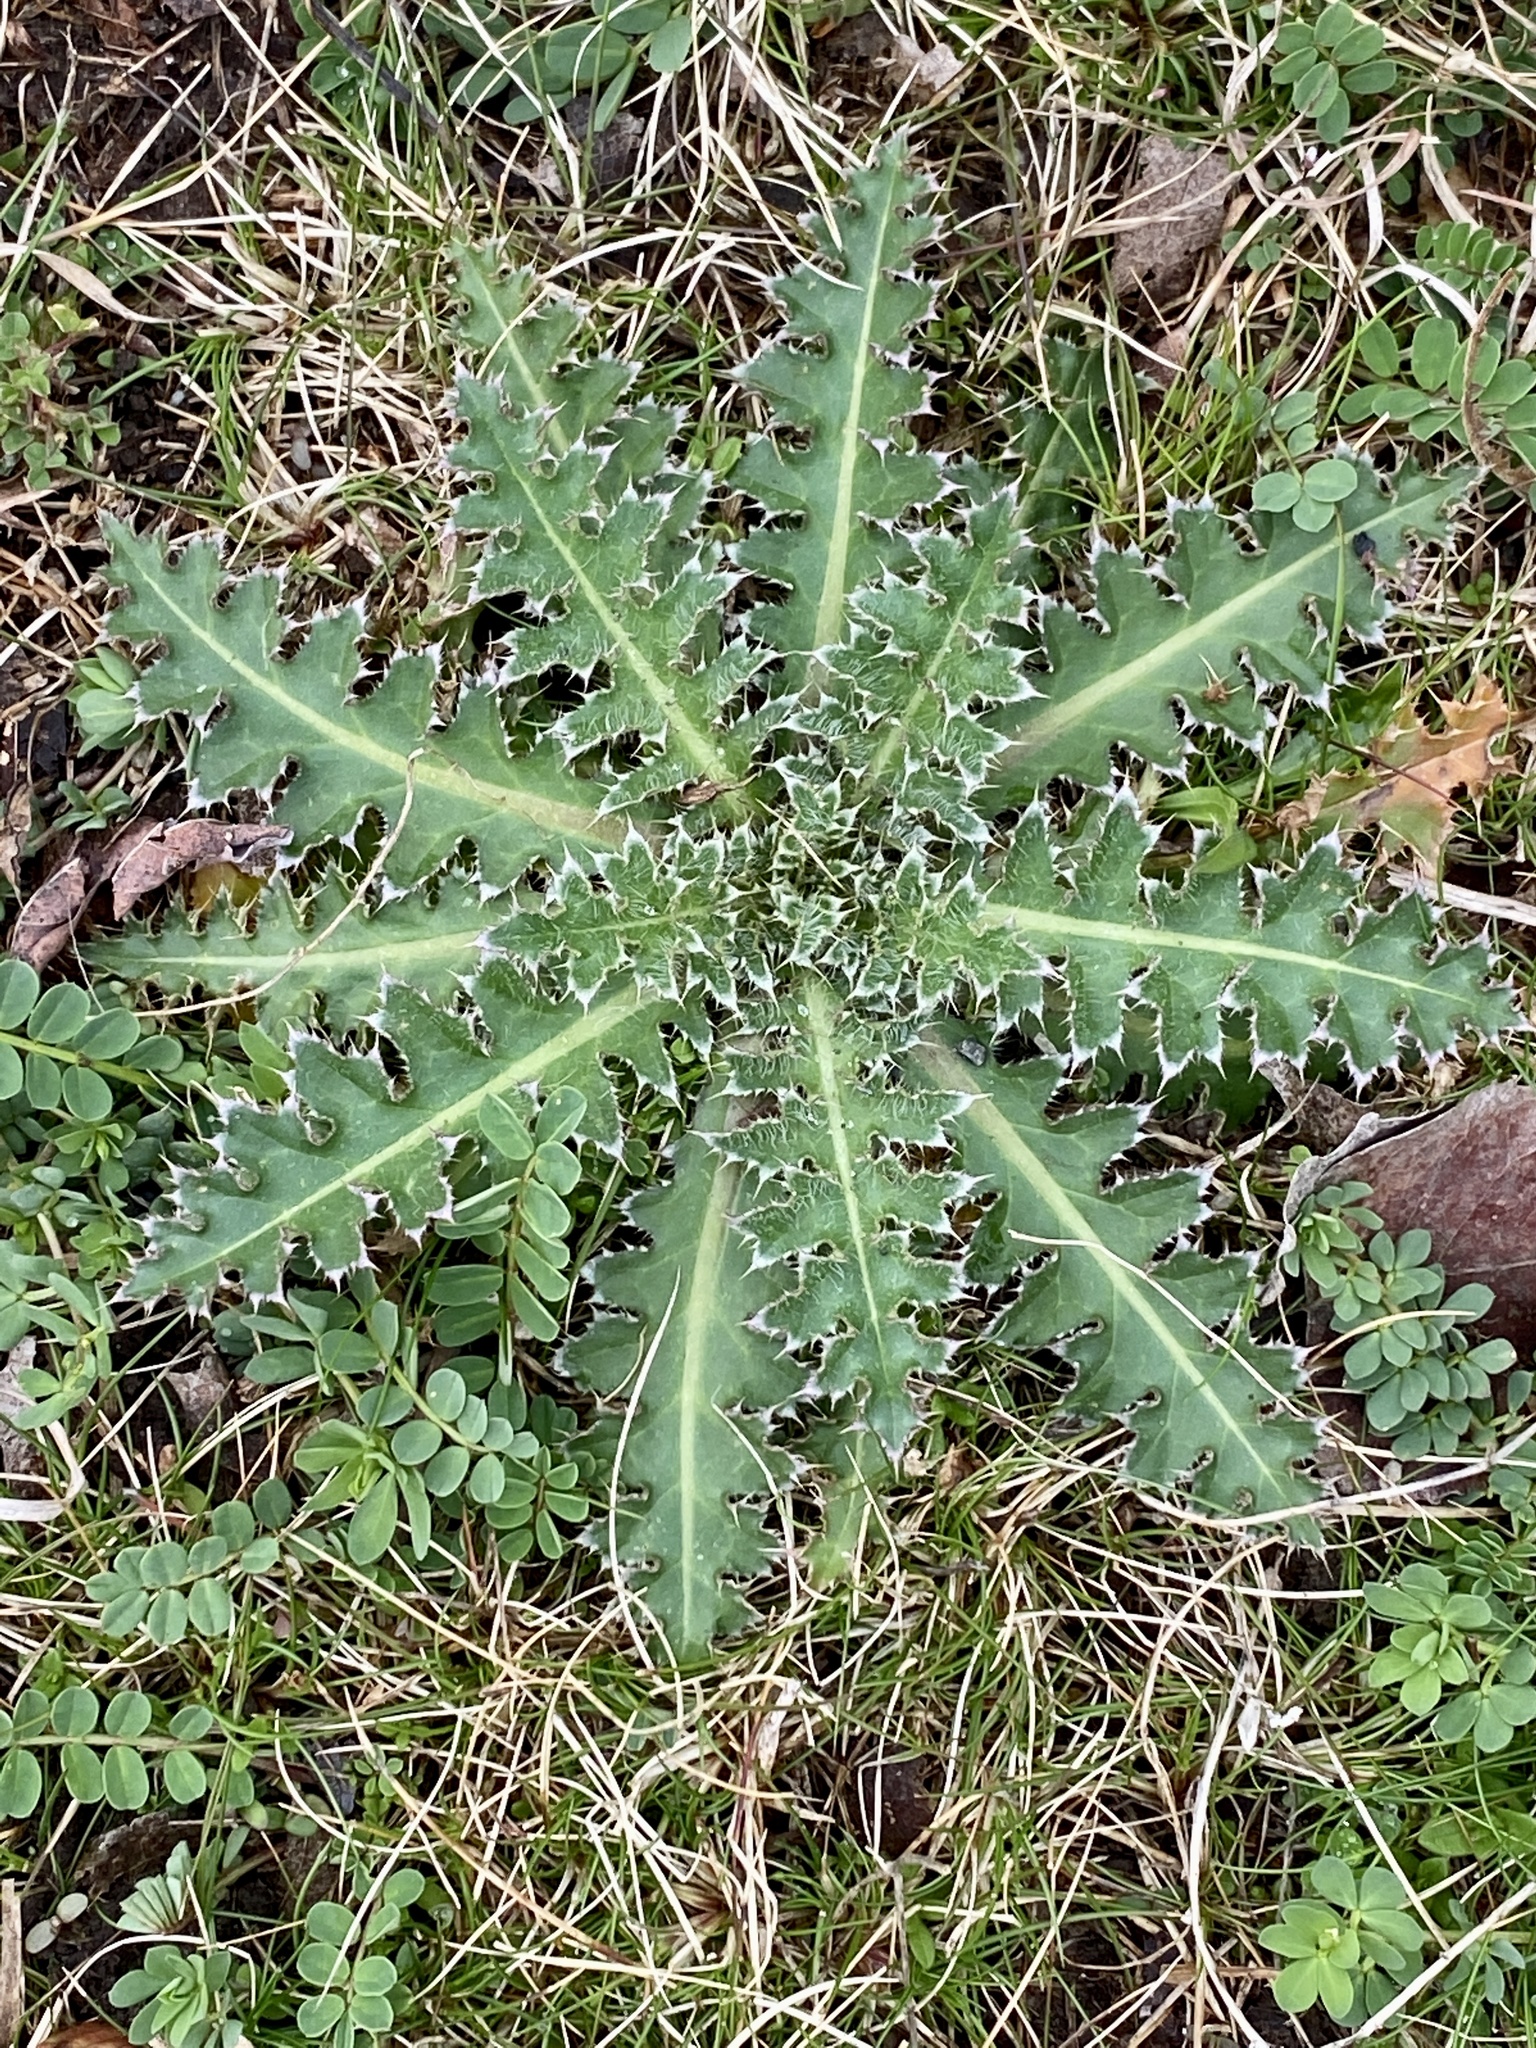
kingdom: Plantae
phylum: Tracheophyta
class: Magnoliopsida
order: Asterales
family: Asteraceae
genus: Carduus
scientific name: Carduus nutans
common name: Musk thistle
